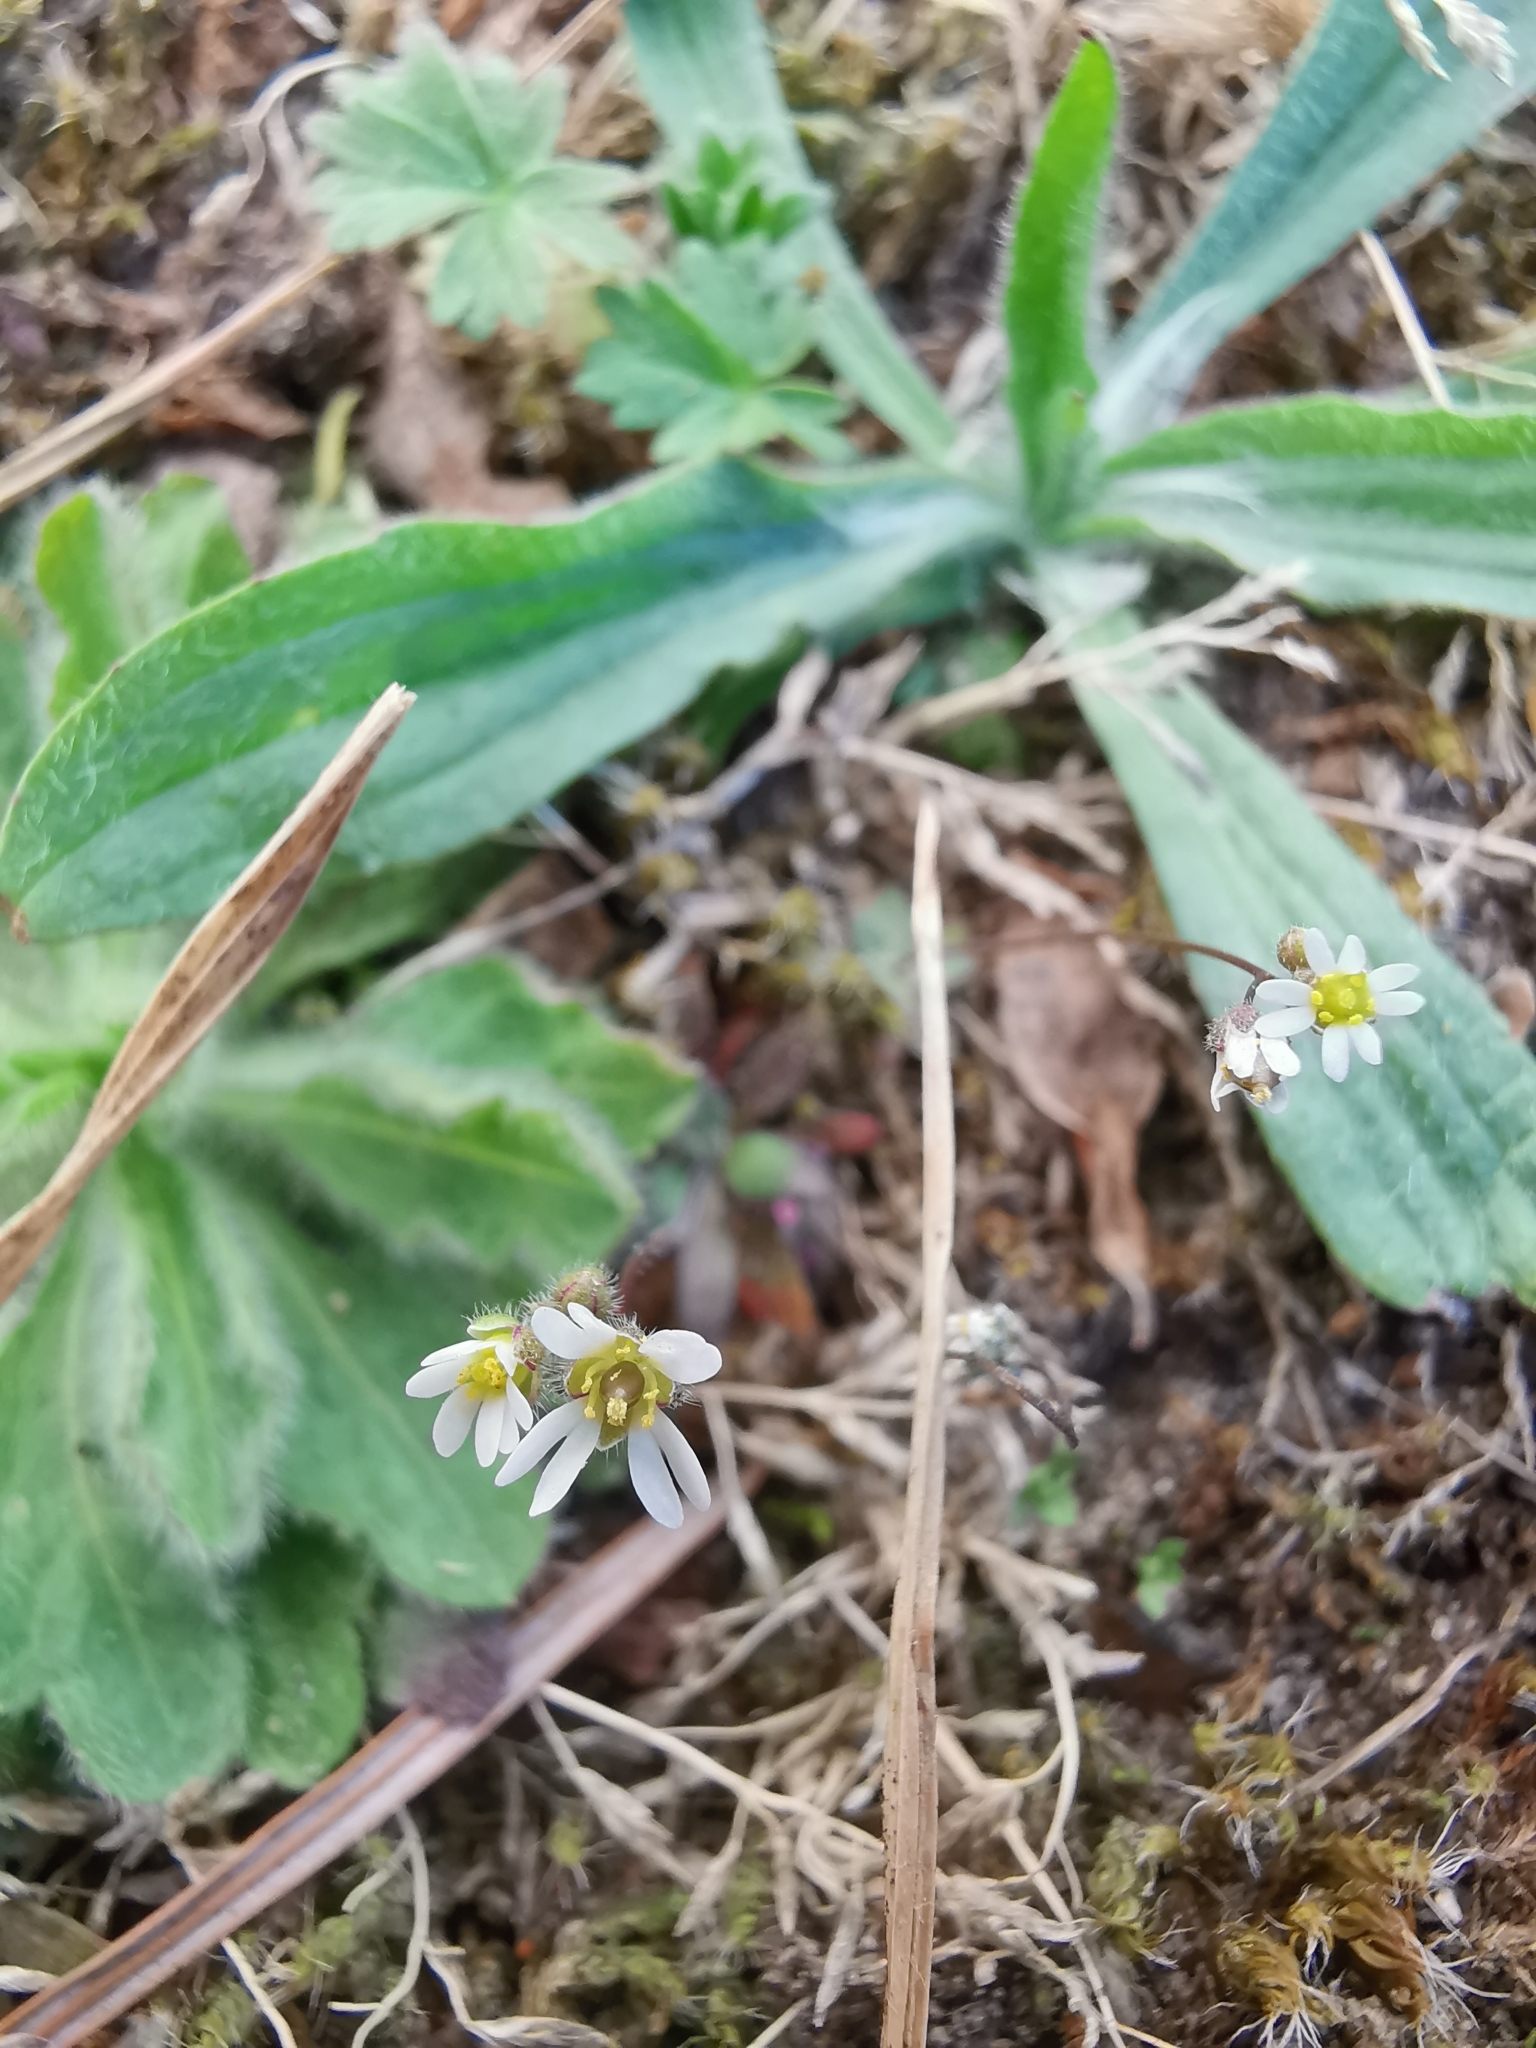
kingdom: Plantae
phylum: Tracheophyta
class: Magnoliopsida
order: Brassicales
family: Brassicaceae
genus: Draba
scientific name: Draba verna
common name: Spring draba
